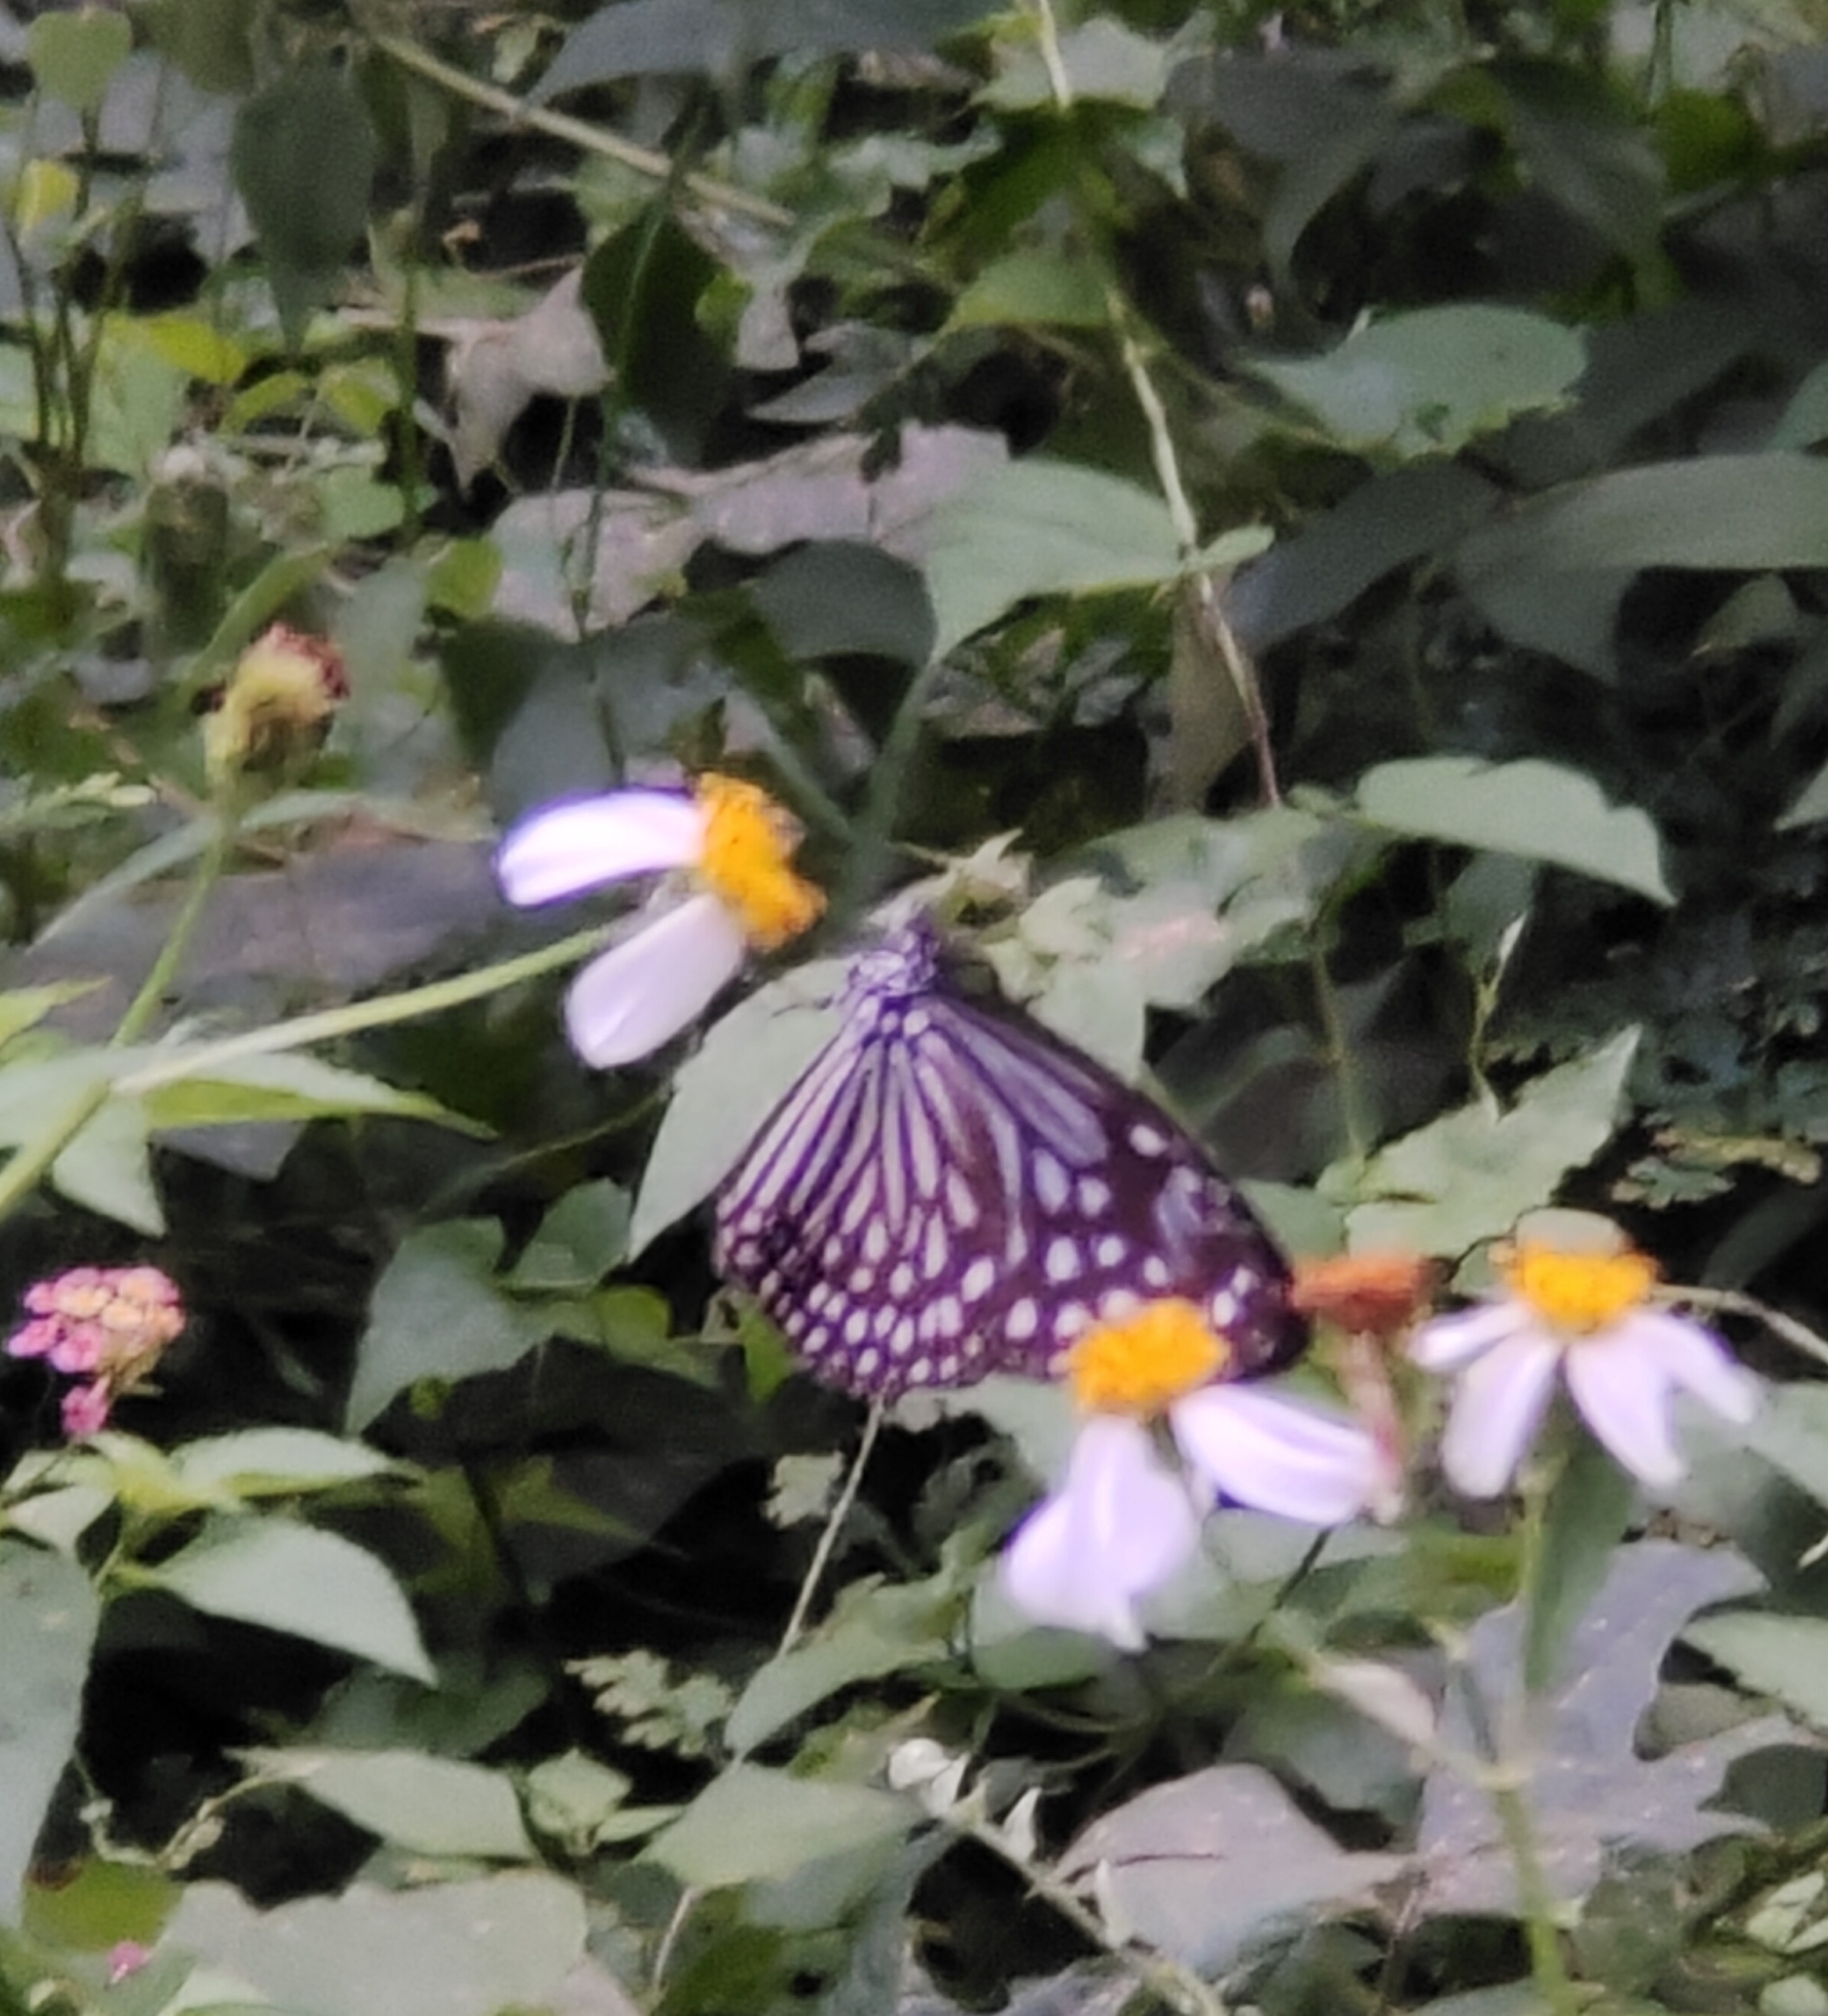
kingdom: Animalia
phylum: Arthropoda
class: Insecta
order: Lepidoptera
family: Nymphalidae
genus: Parantica
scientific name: Parantica agleoides
